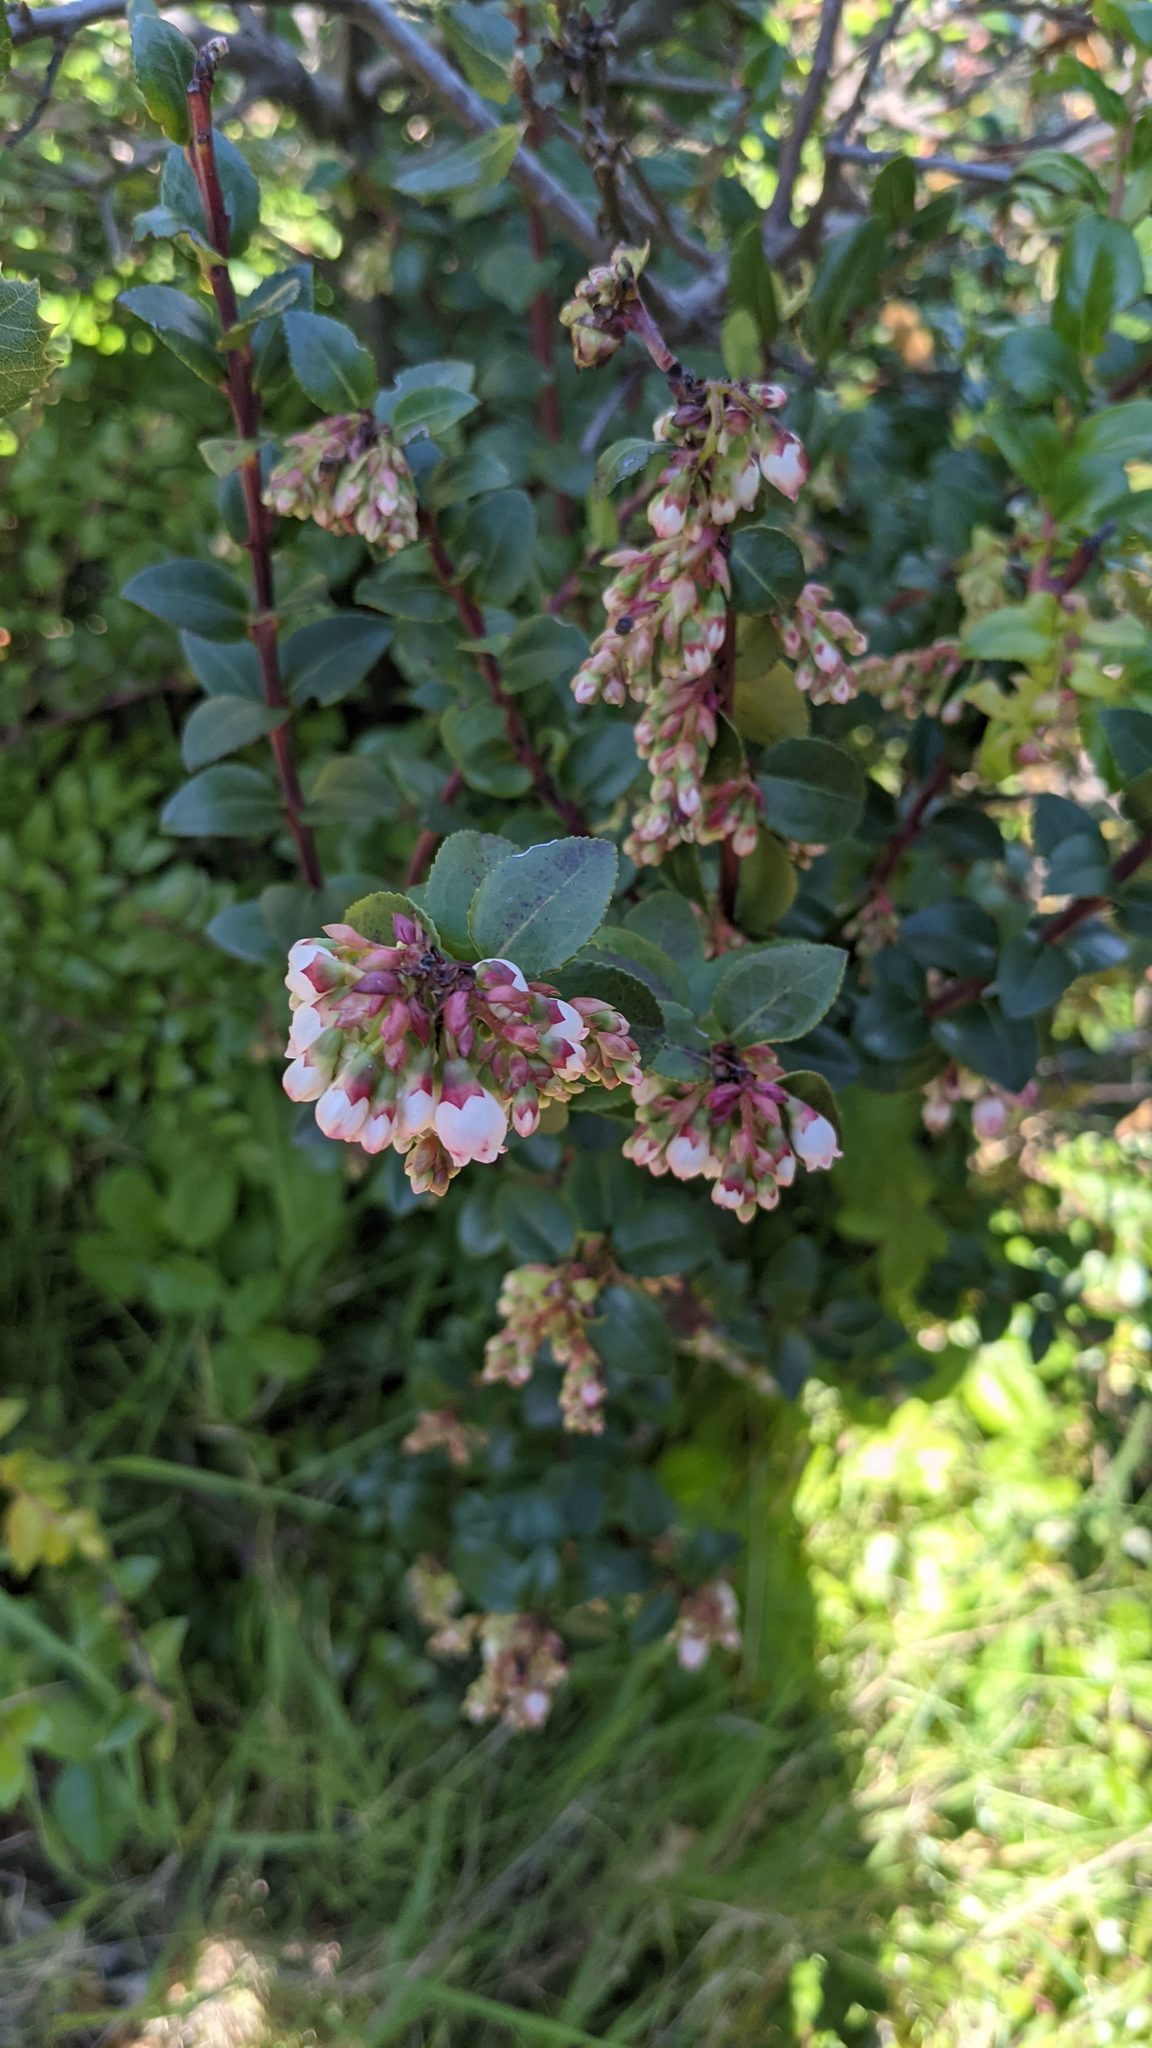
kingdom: Plantae
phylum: Tracheophyta
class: Magnoliopsida
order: Ericales
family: Ericaceae
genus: Vaccinium
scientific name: Vaccinium ovatum
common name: California-huckleberry
